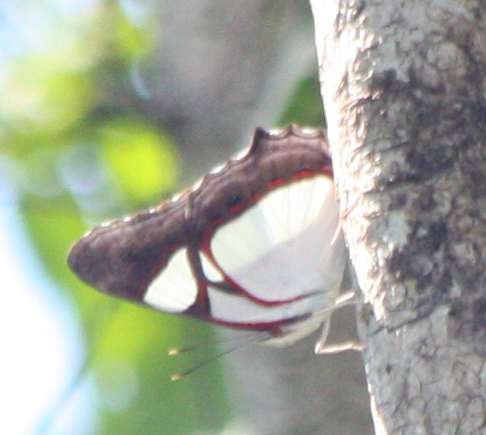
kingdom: Animalia
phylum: Arthropoda
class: Insecta
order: Lepidoptera
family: Nymphalidae
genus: Pyrrhogyra
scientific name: Pyrrhogyra neaerea
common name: Leading red-ring
